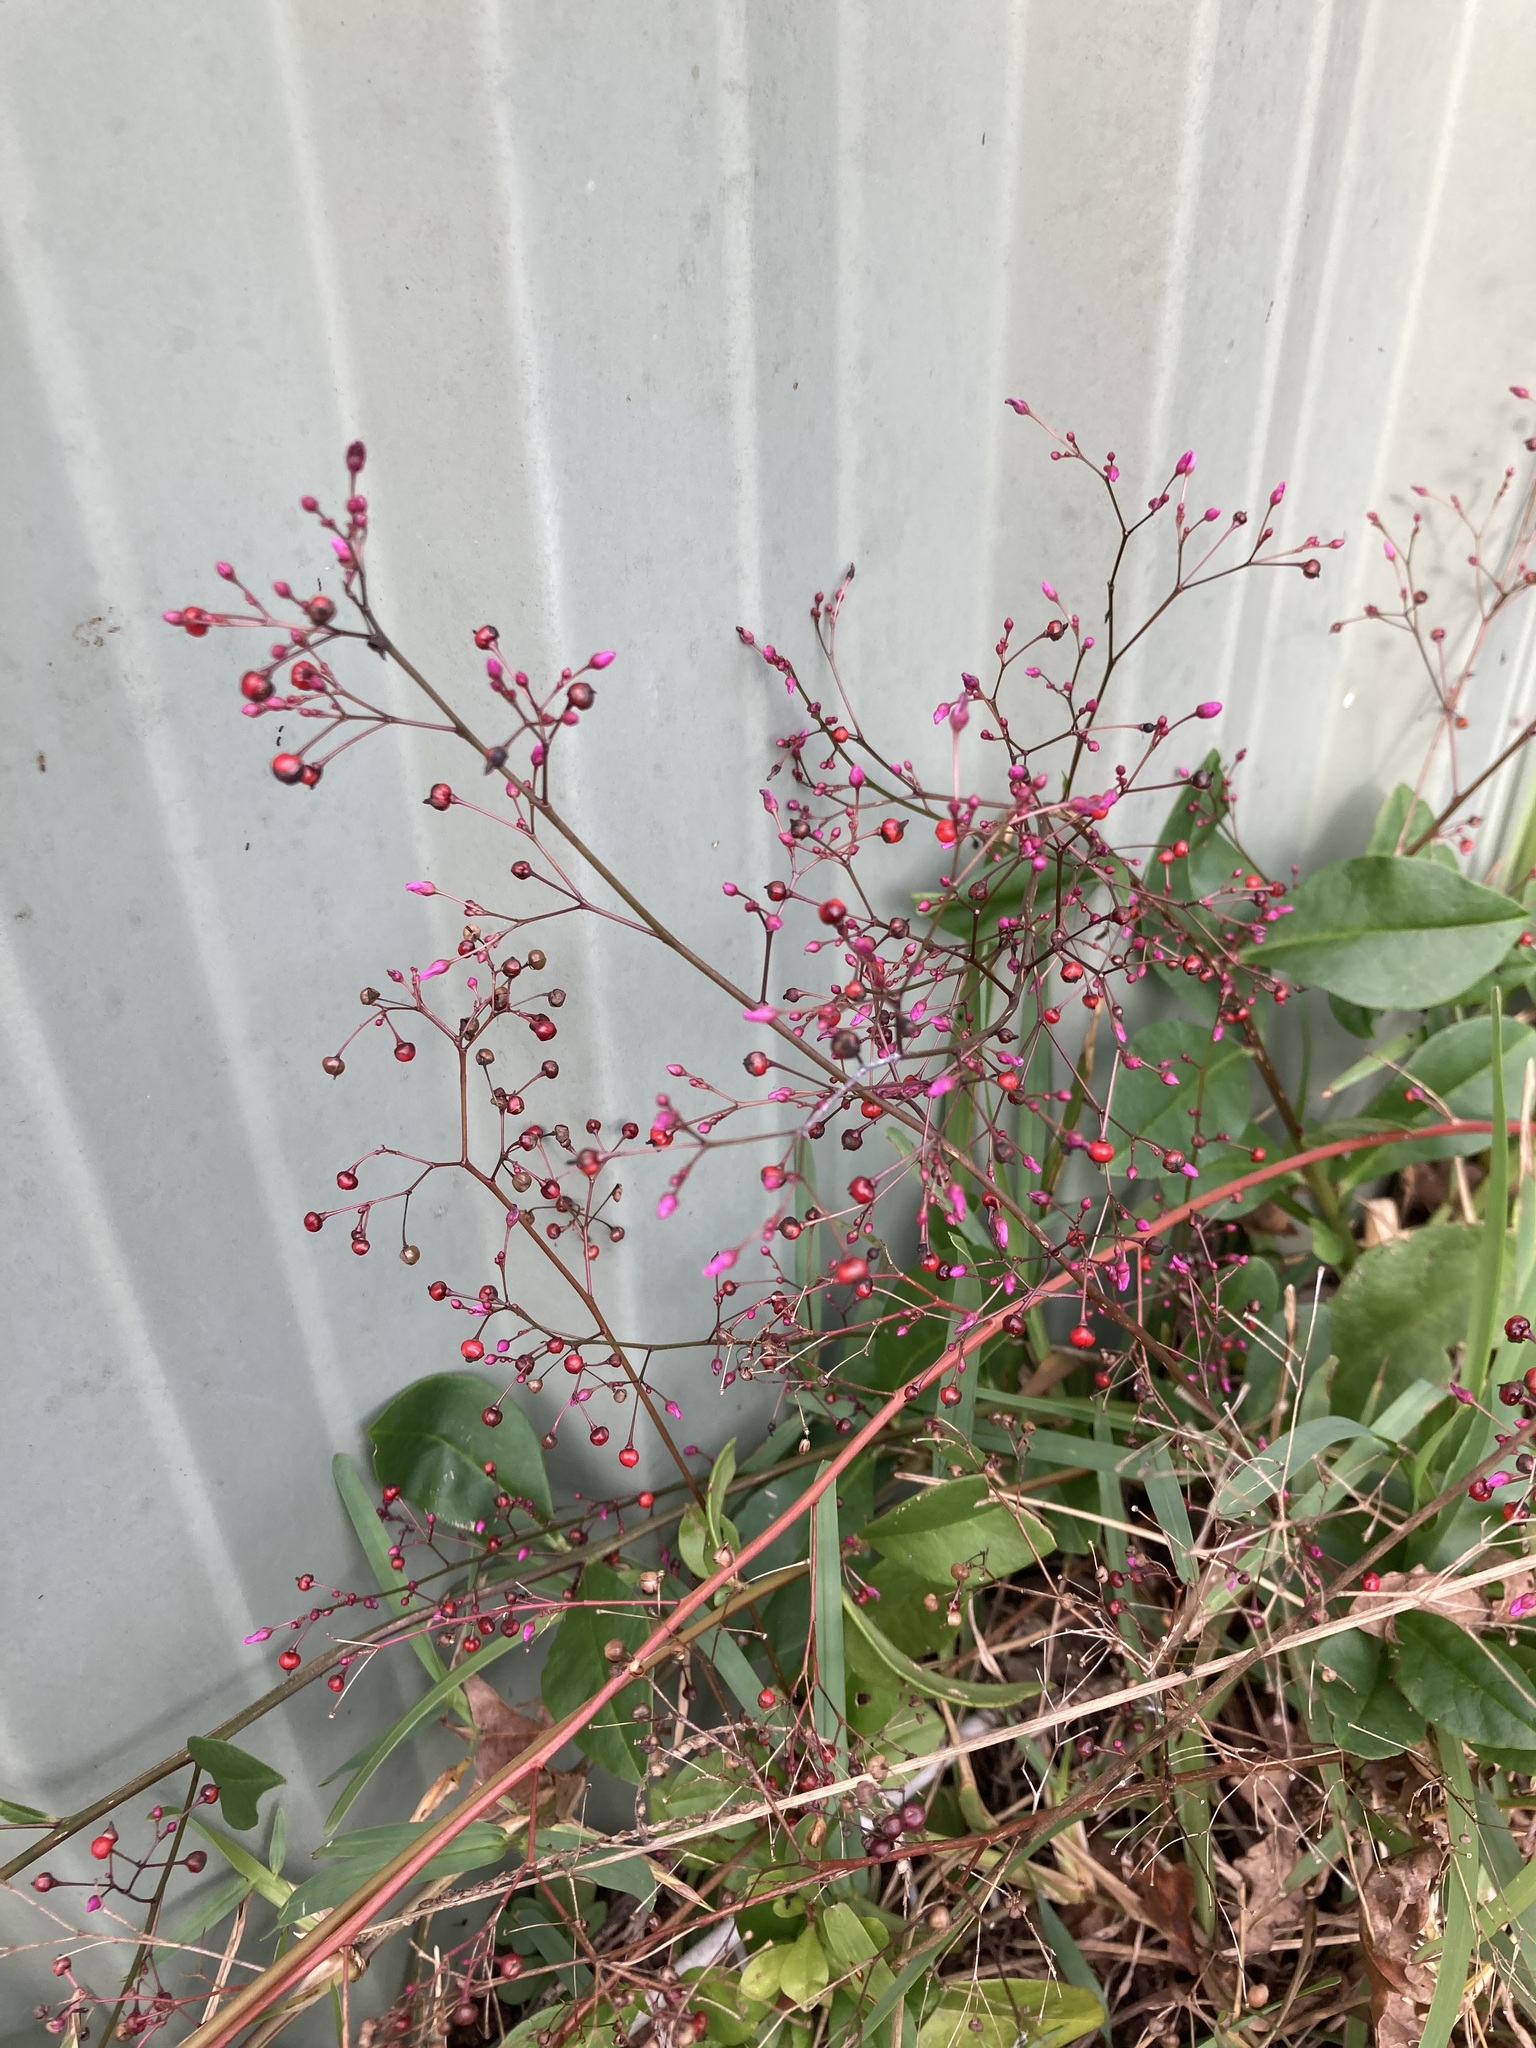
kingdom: Plantae
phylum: Tracheophyta
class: Magnoliopsida
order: Caryophyllales
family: Talinaceae
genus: Talinum
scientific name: Talinum paniculatum
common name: Jewels of opar
